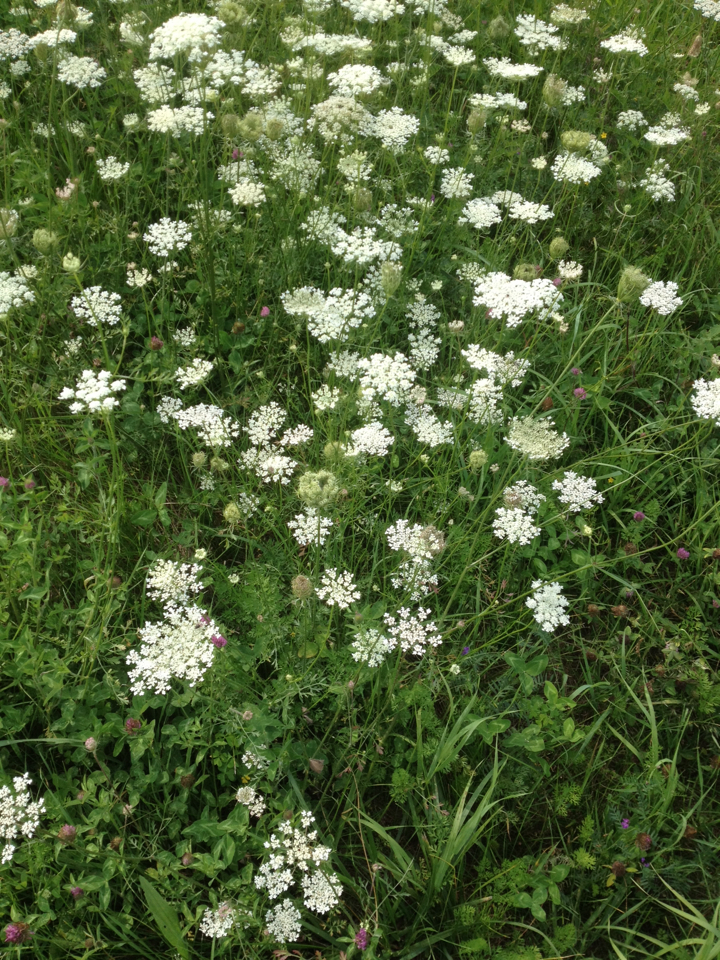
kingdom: Plantae
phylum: Tracheophyta
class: Magnoliopsida
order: Apiales
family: Apiaceae
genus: Daucus
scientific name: Daucus carota
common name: Wild carrot
